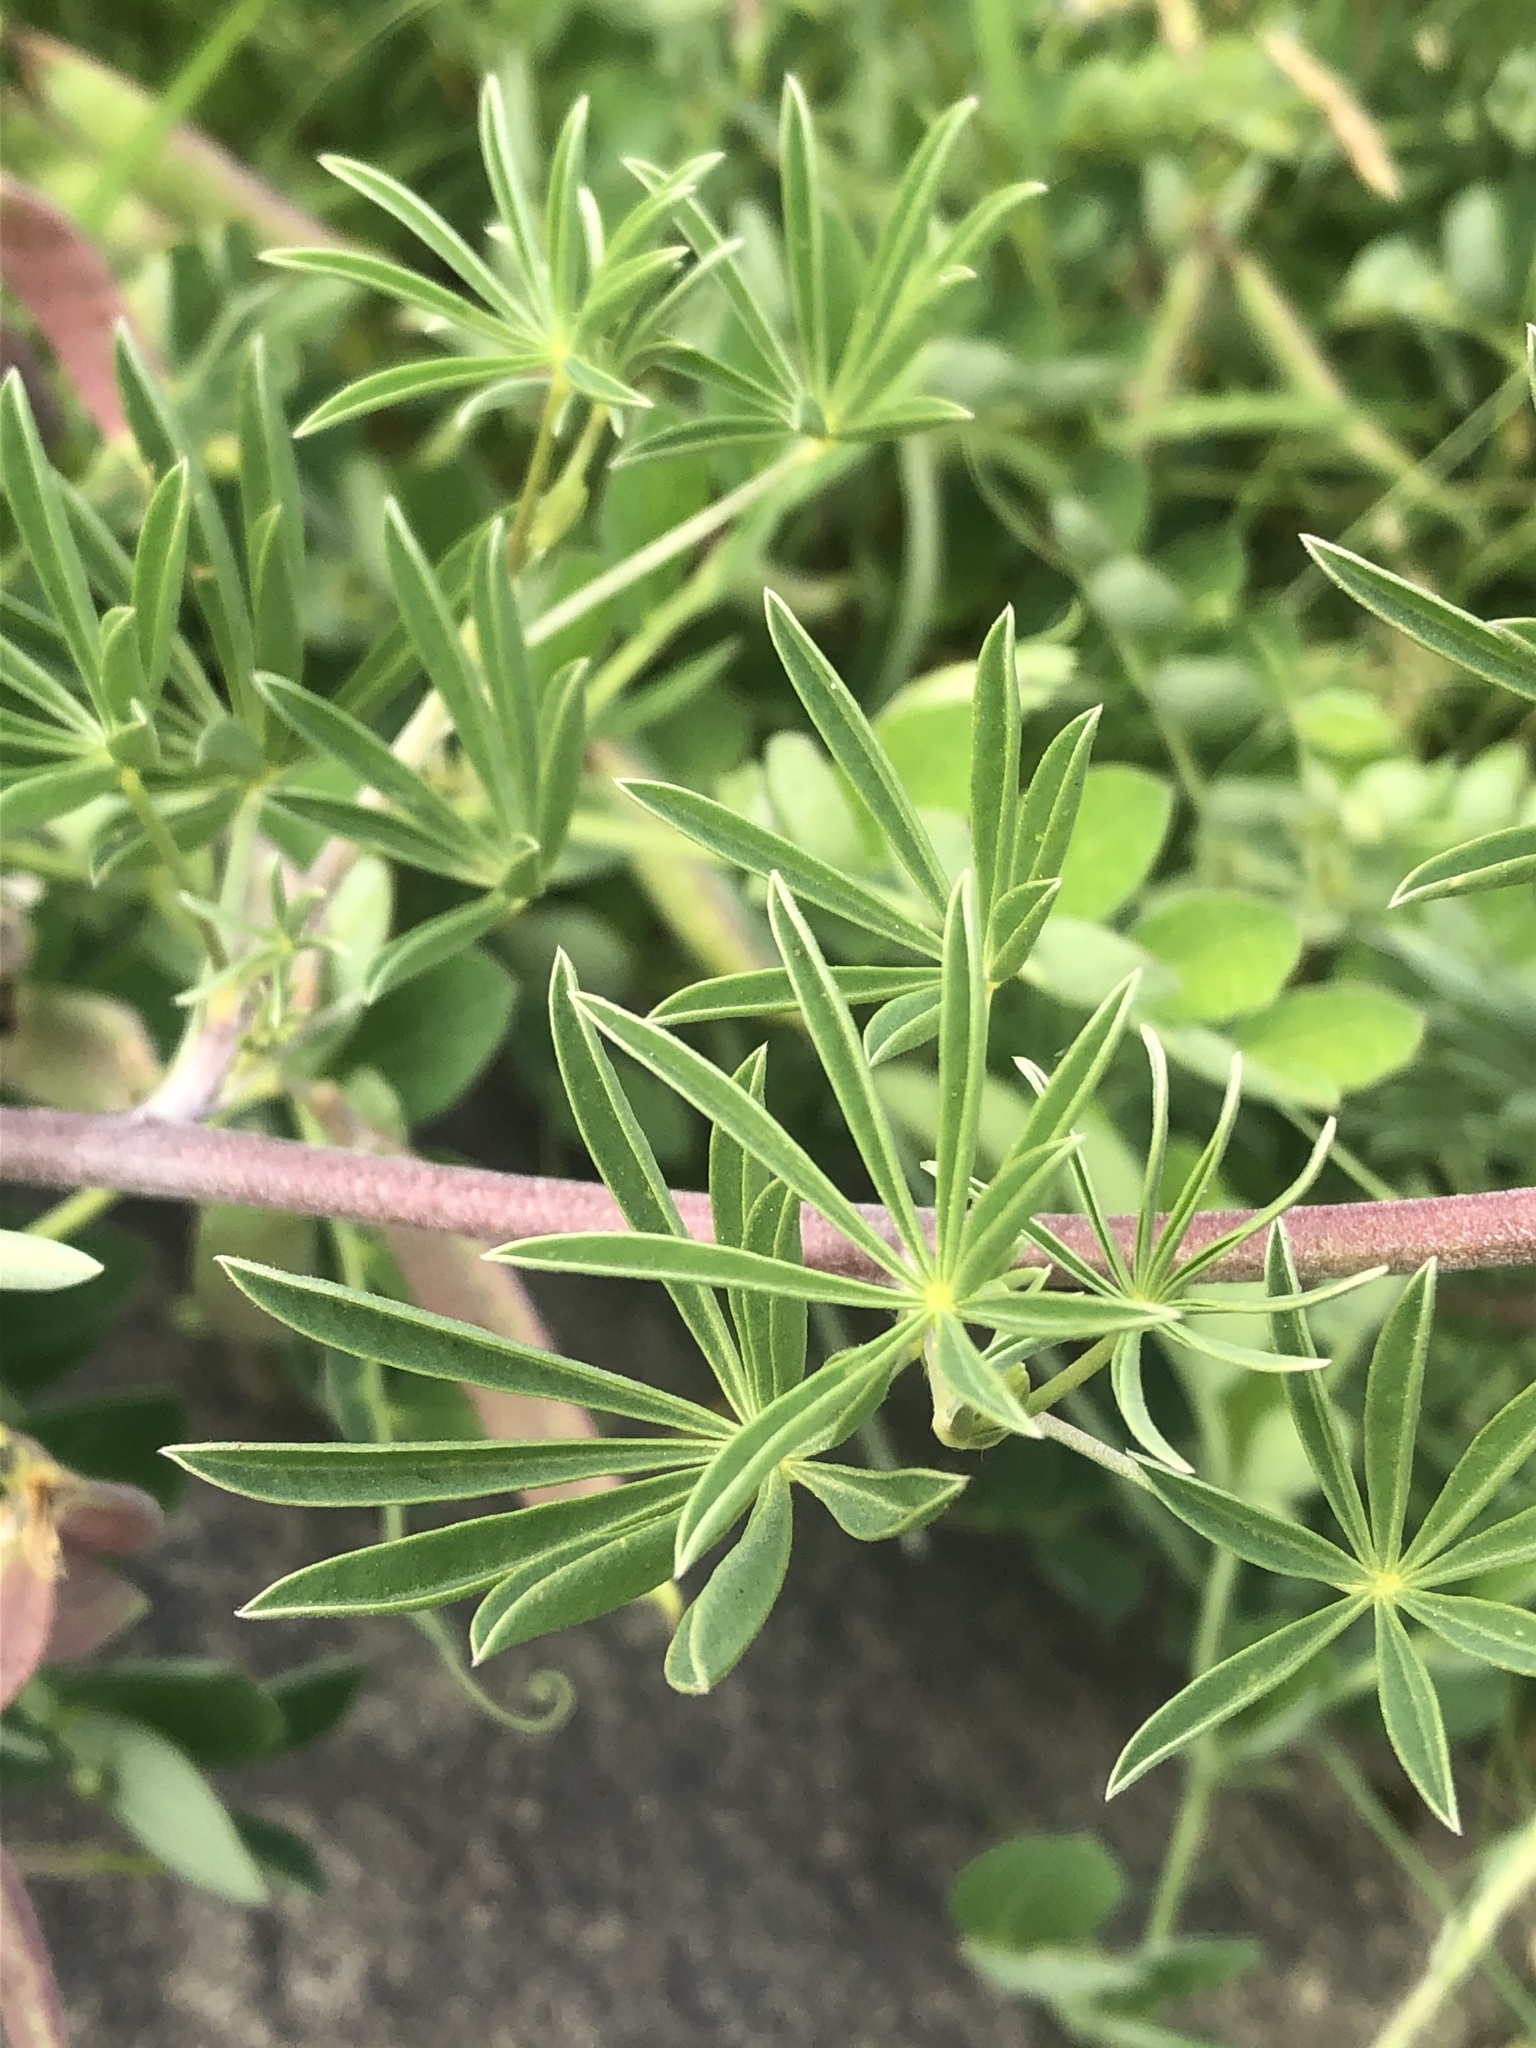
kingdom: Plantae
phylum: Tracheophyta
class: Magnoliopsida
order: Fabales
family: Fabaceae
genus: Lupinus
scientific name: Lupinus arboreus
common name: Yellow bush lupine
